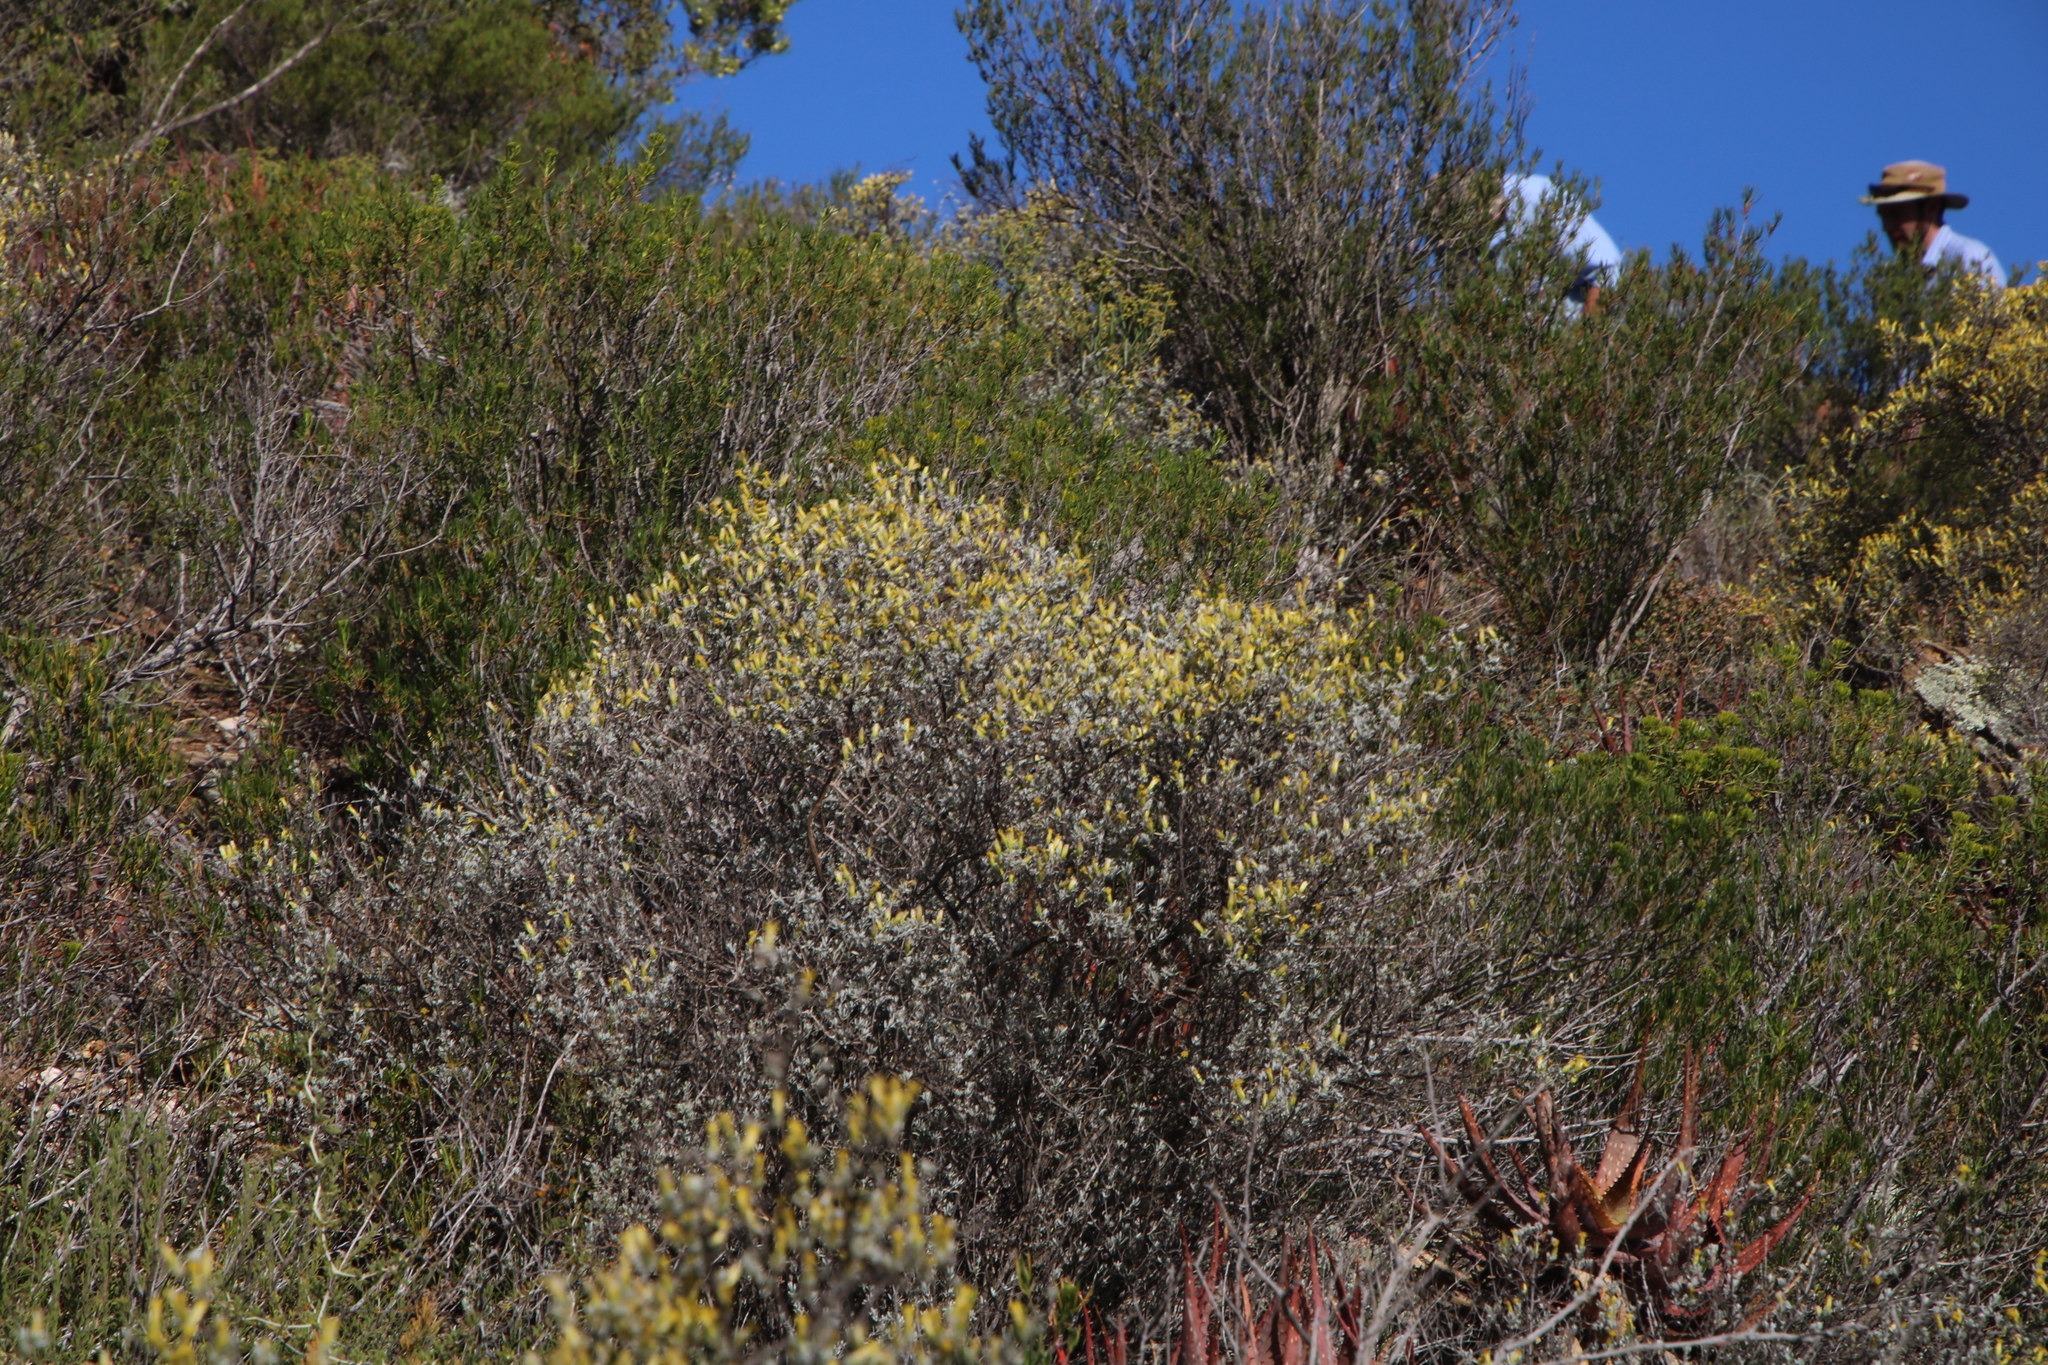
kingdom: Plantae
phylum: Tracheophyta
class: Magnoliopsida
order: Asterales
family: Asteraceae
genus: Pteronia
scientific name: Pteronia incana
